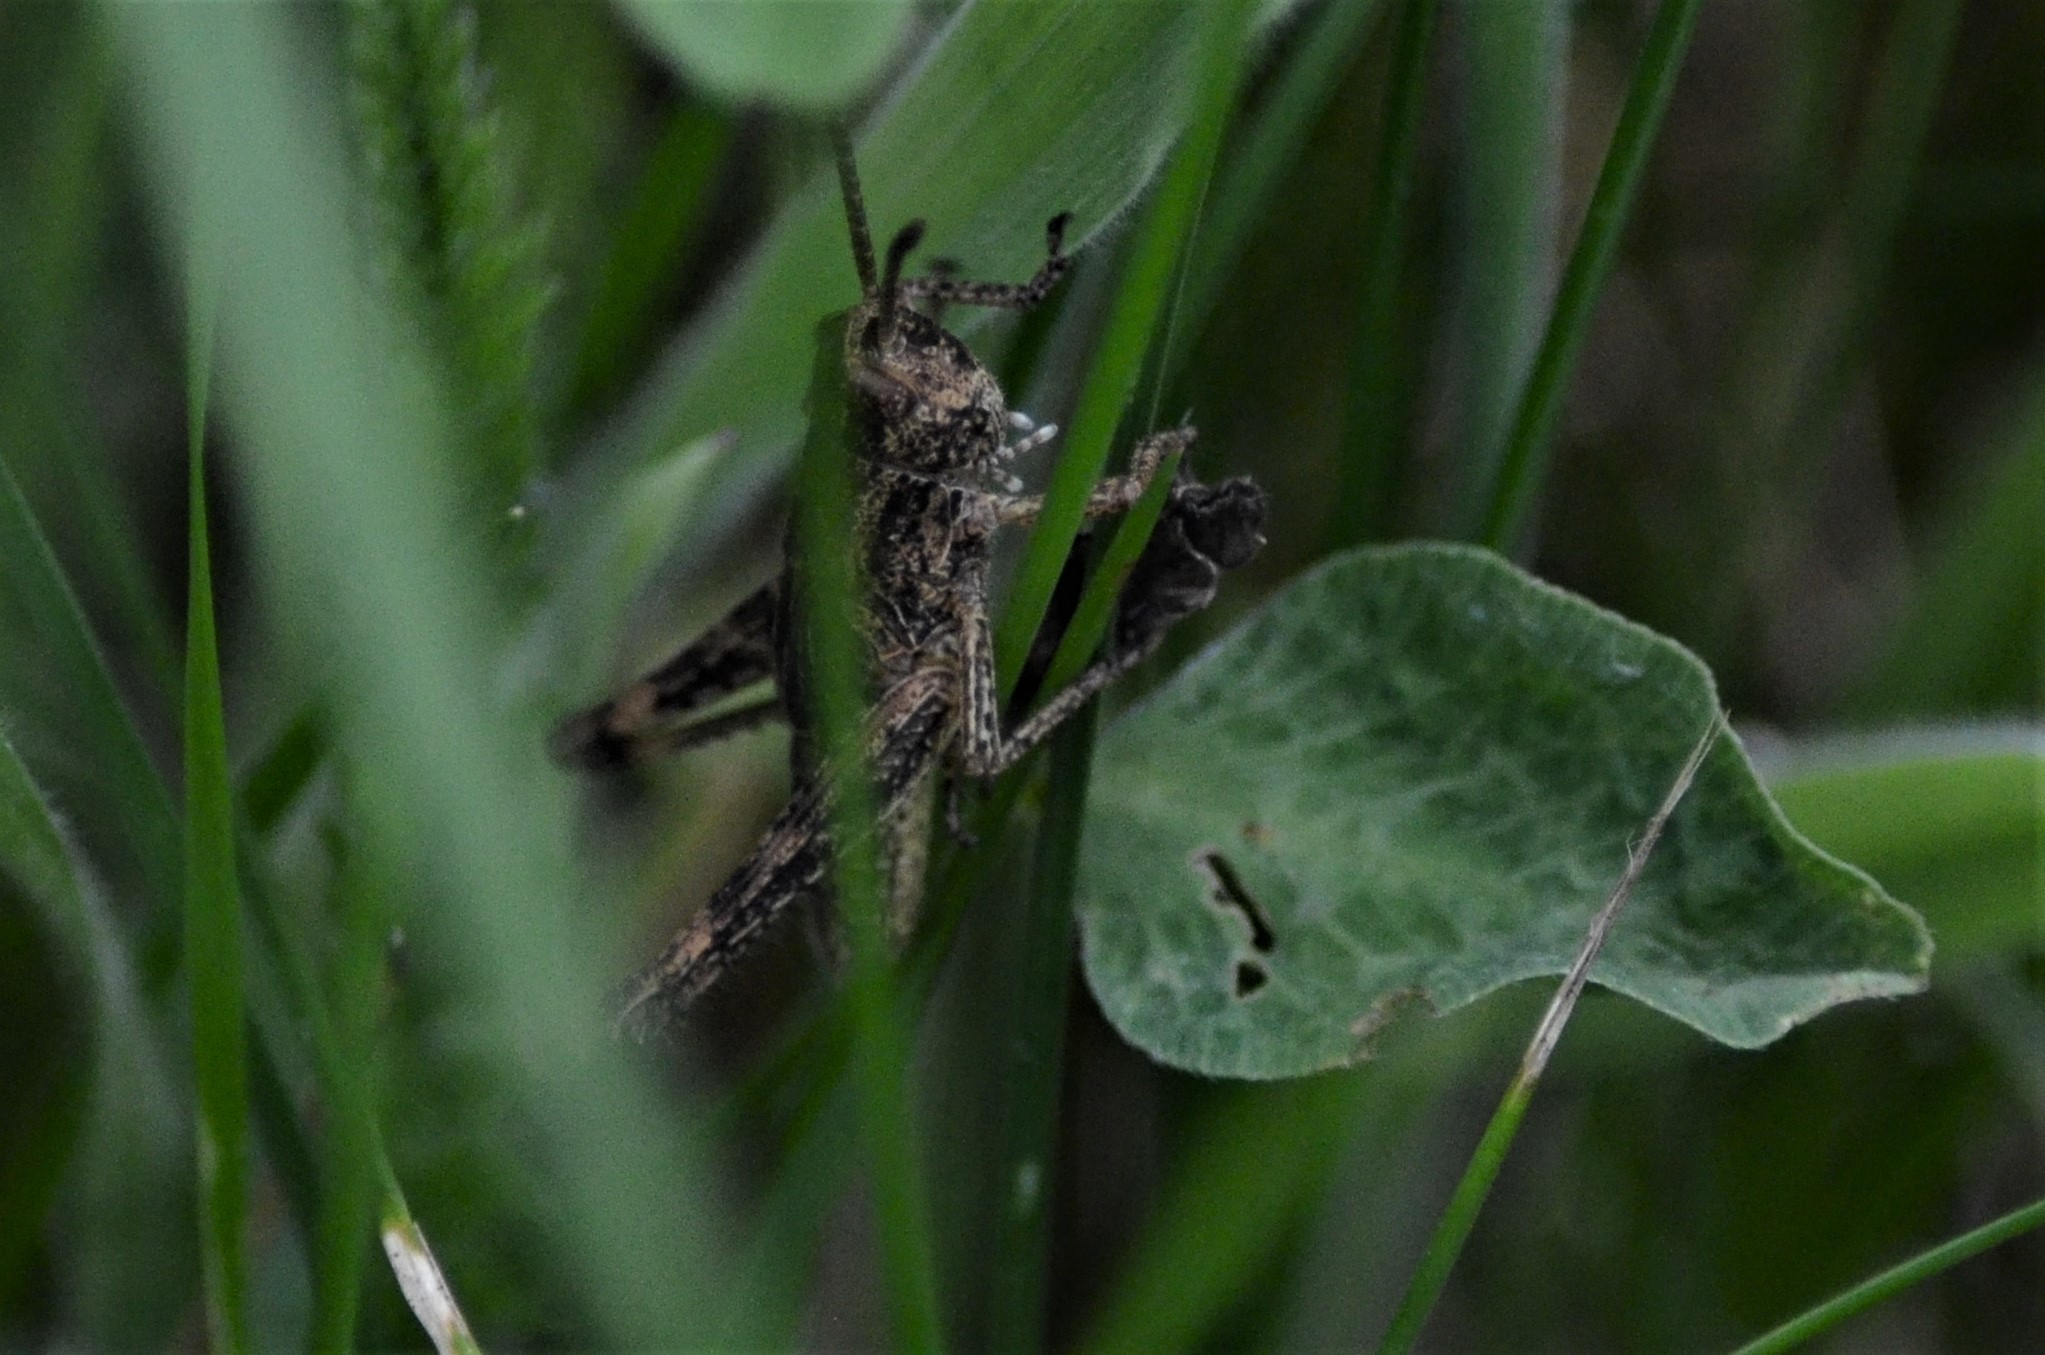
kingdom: Animalia
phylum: Arthropoda
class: Insecta
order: Orthoptera
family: Acrididae
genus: Gomphocerippus
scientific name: Gomphocerippus rufus
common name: Rufous grasshopper
